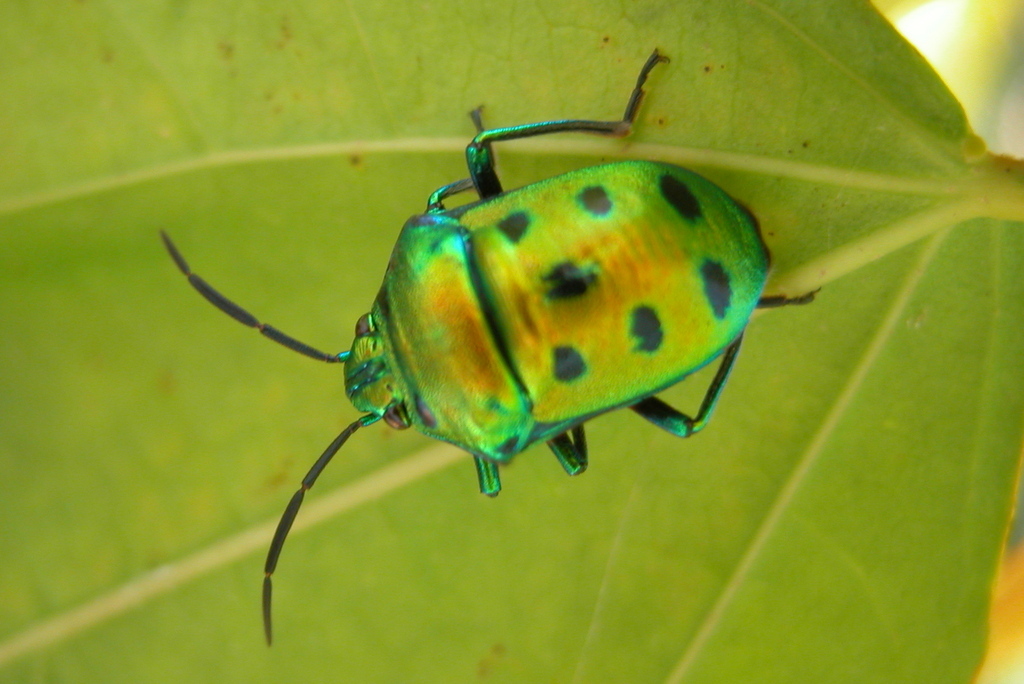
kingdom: Animalia
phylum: Arthropoda
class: Insecta
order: Hemiptera
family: Scutelleridae
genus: Chrysocoris
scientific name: Chrysocoris purpureus
